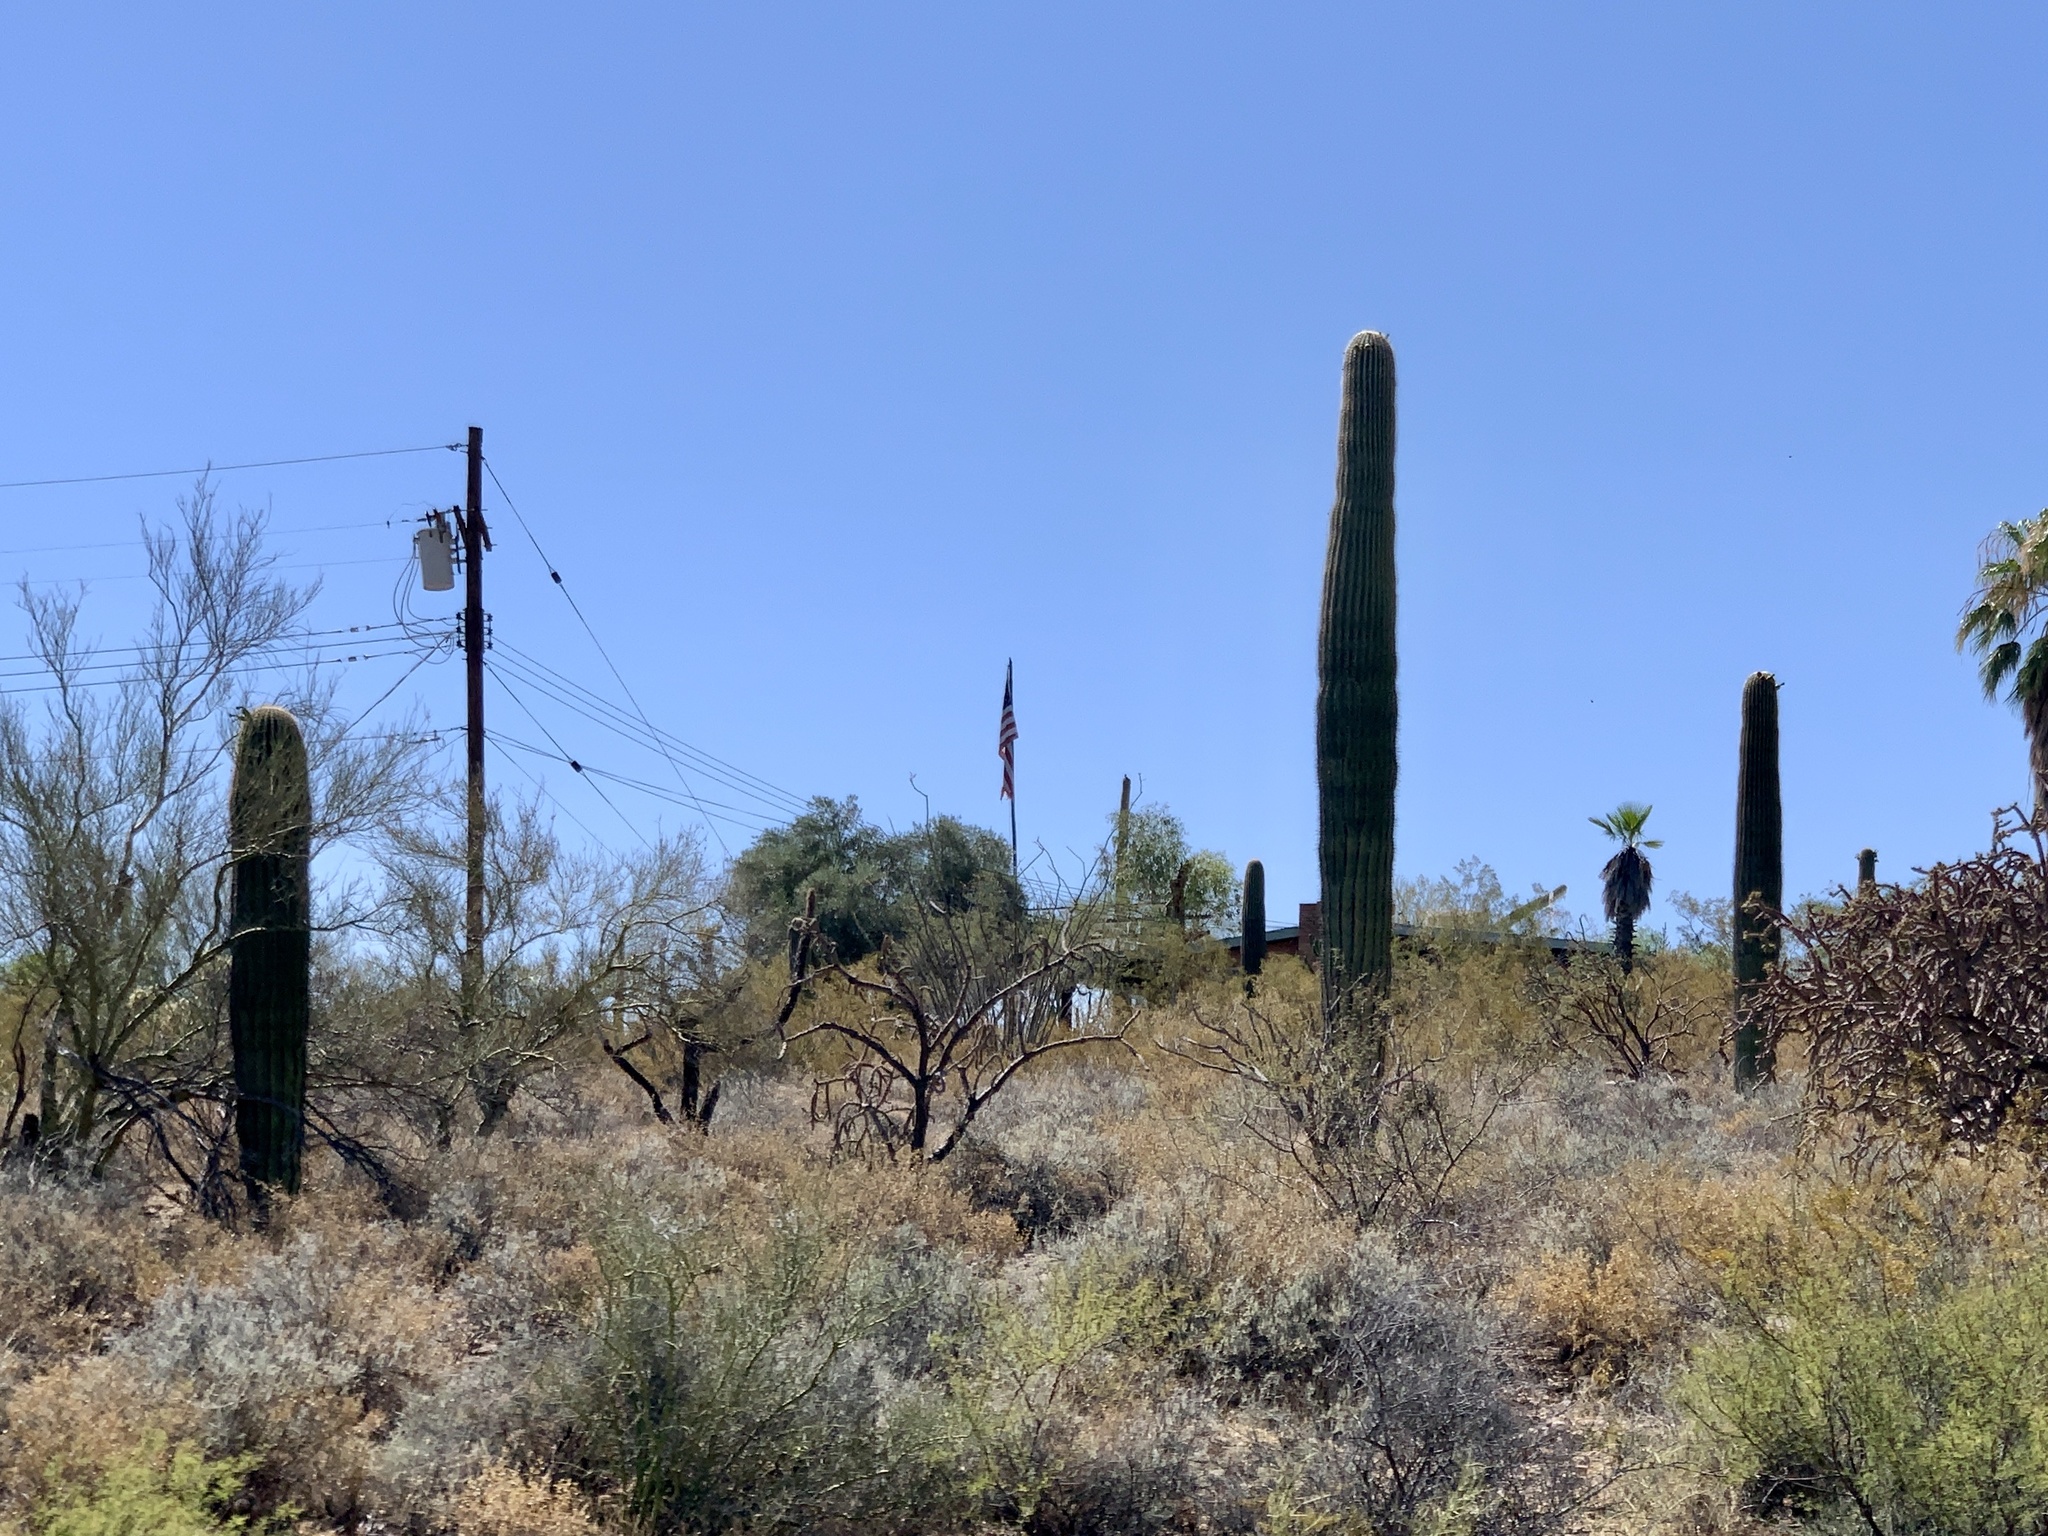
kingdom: Plantae
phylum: Tracheophyta
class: Magnoliopsida
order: Caryophyllales
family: Cactaceae
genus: Carnegiea
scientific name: Carnegiea gigantea
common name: Saguaro
